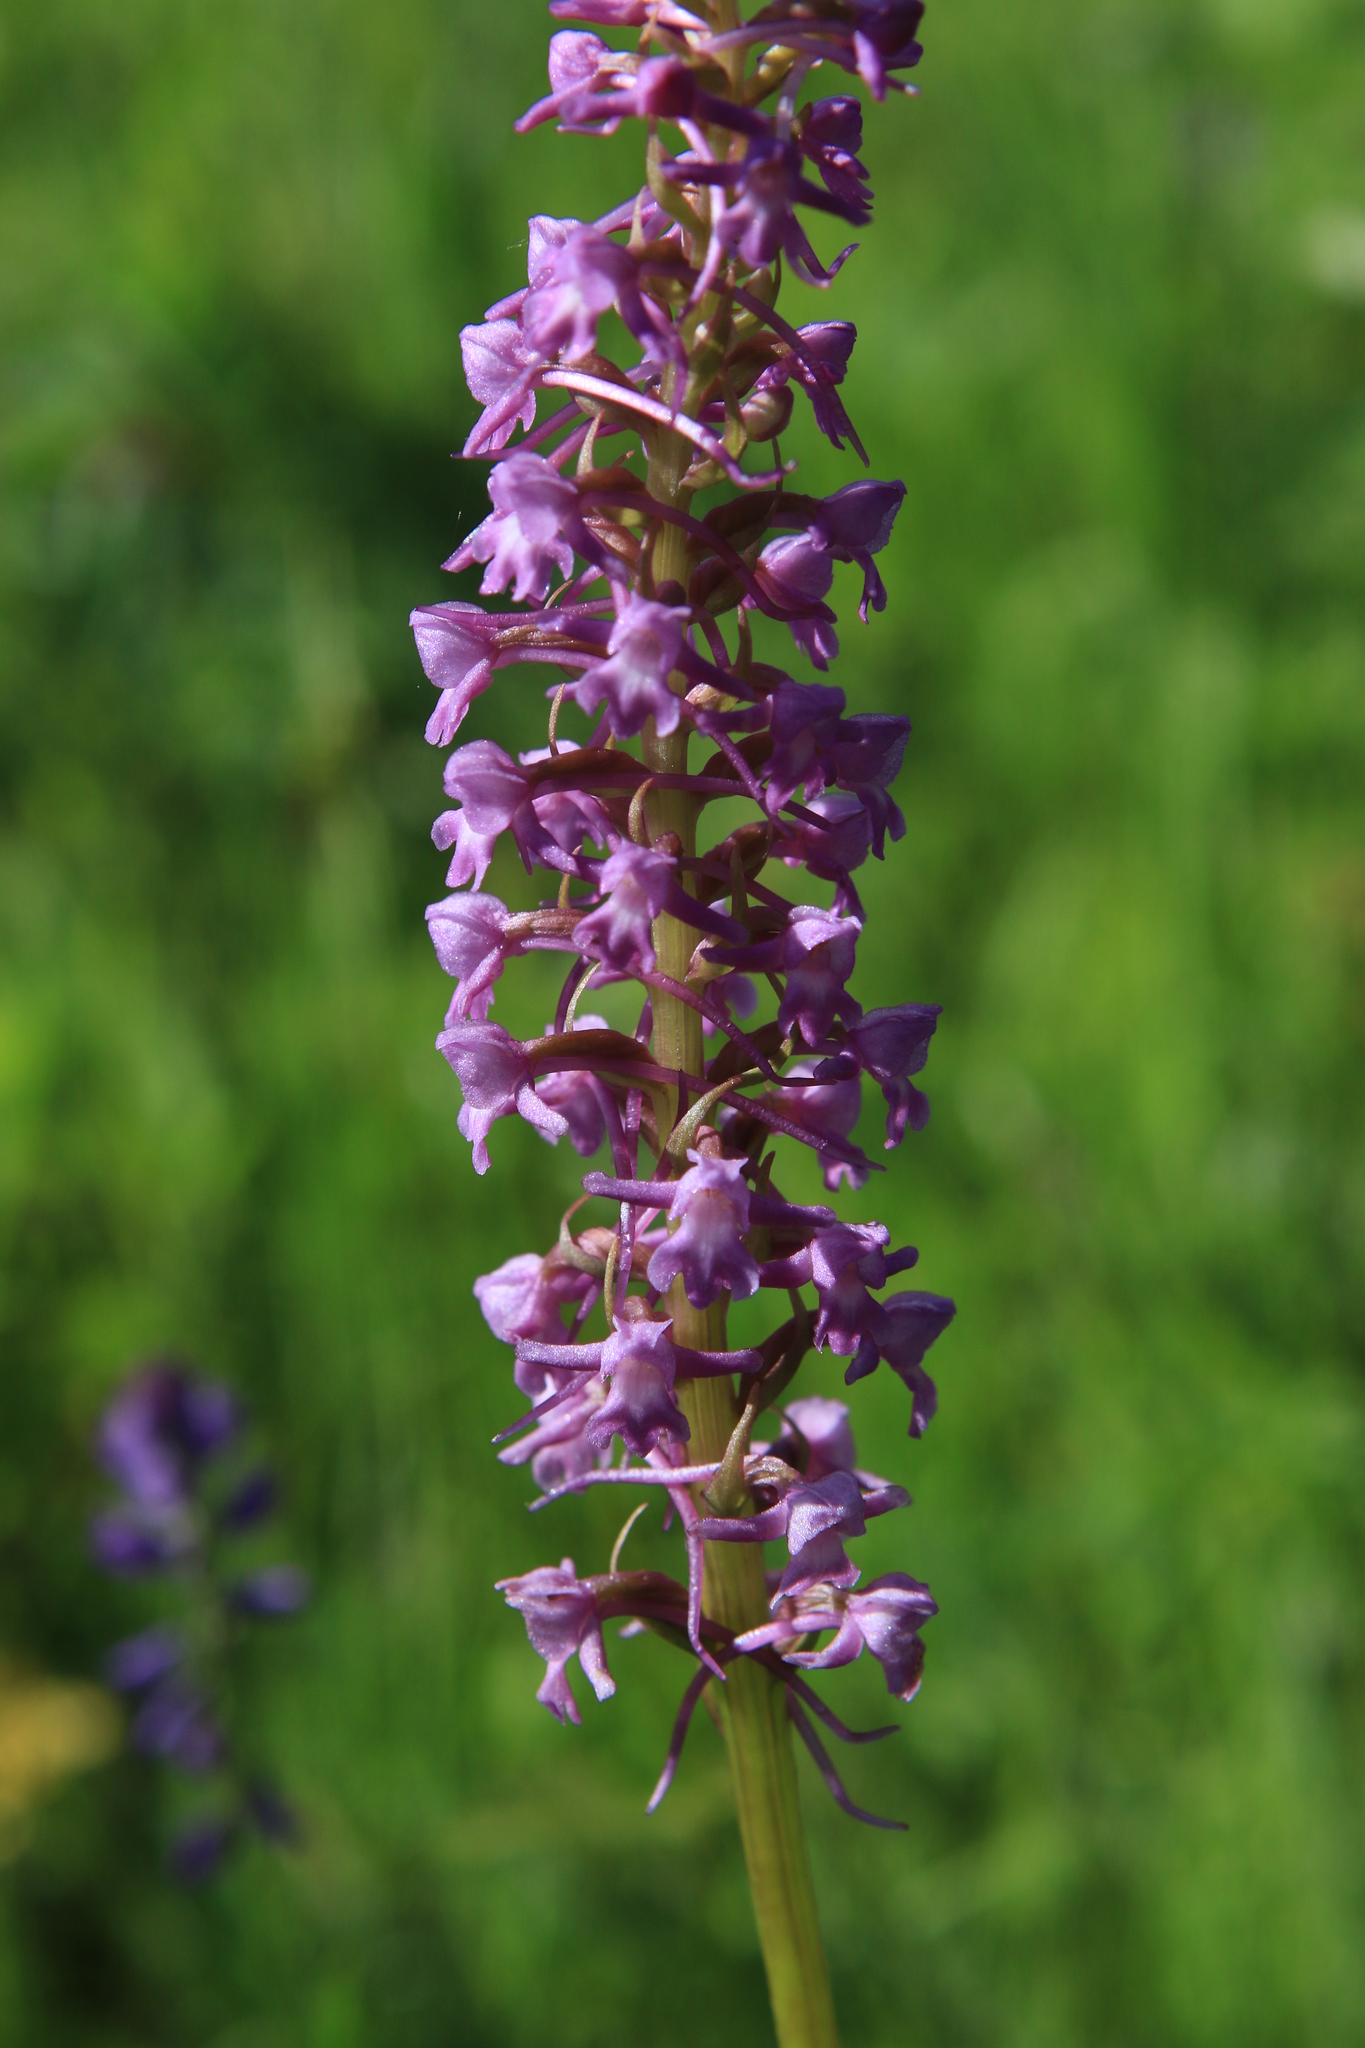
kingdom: Plantae
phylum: Tracheophyta
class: Liliopsida
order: Asparagales
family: Orchidaceae
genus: Gymnadenia
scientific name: Gymnadenia conopsea
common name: Fragrant orchid
